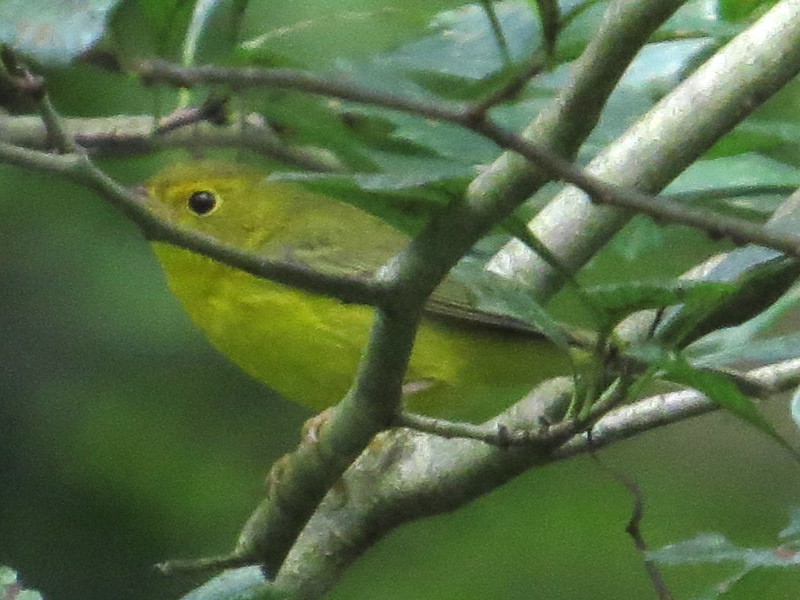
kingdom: Animalia
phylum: Chordata
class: Aves
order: Passeriformes
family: Parulidae
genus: Cardellina
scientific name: Cardellina pusilla
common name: Wilson's warbler
